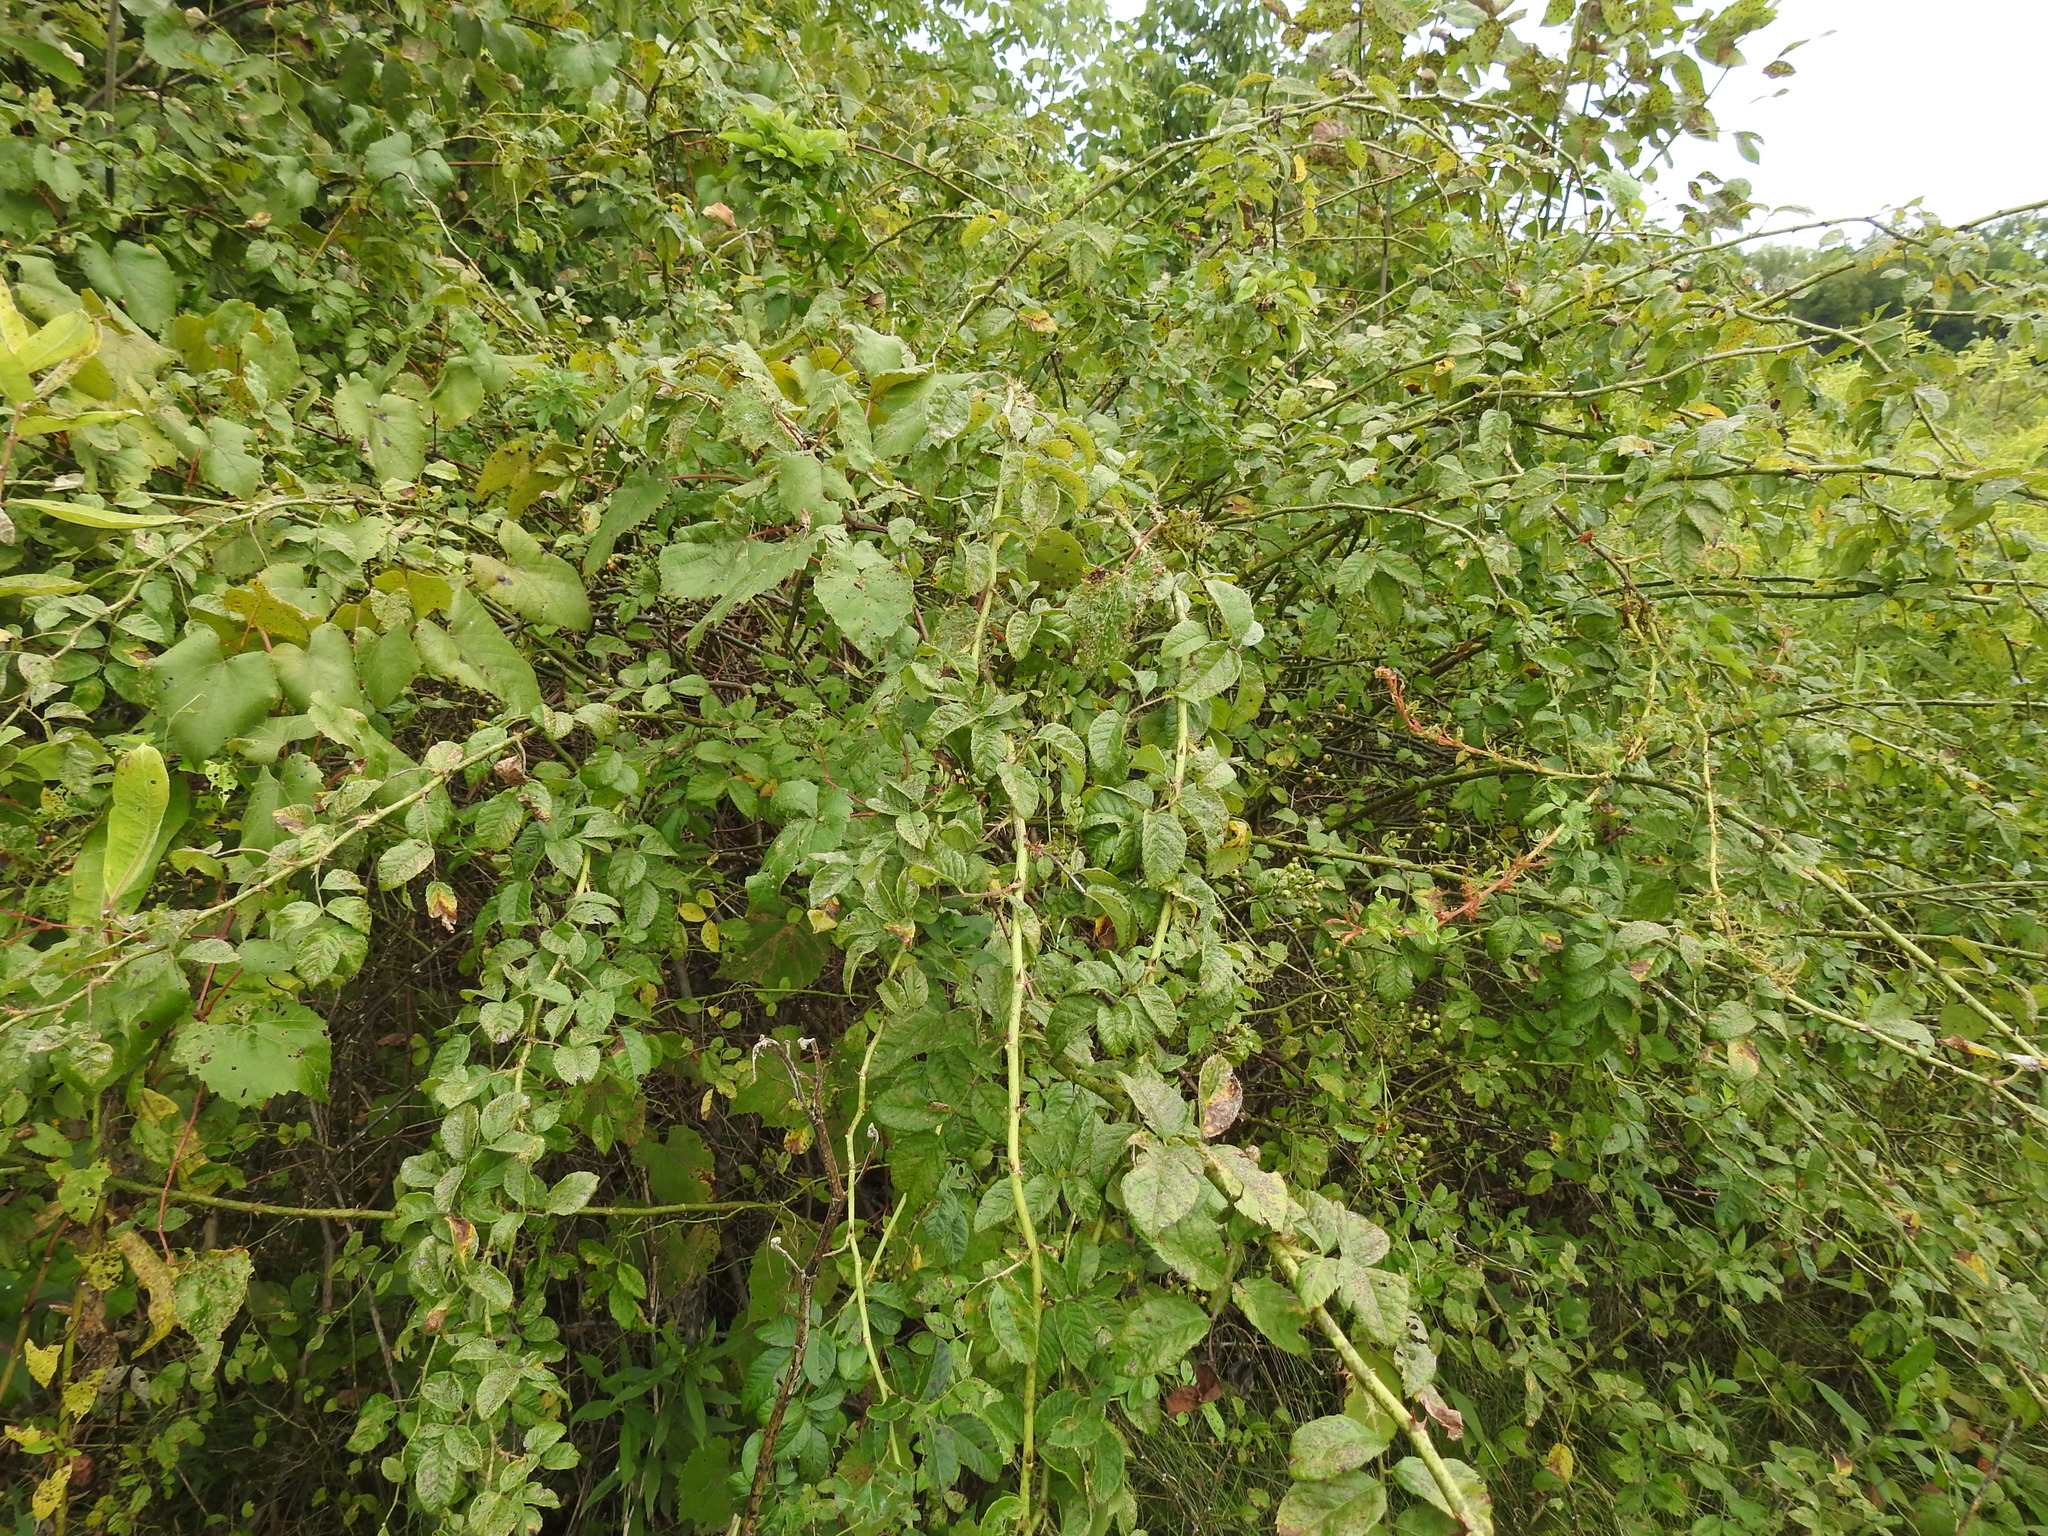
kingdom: Plantae
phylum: Tracheophyta
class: Magnoliopsida
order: Rosales
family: Rosaceae
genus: Rosa
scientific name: Rosa multiflora
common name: Multiflora rose
